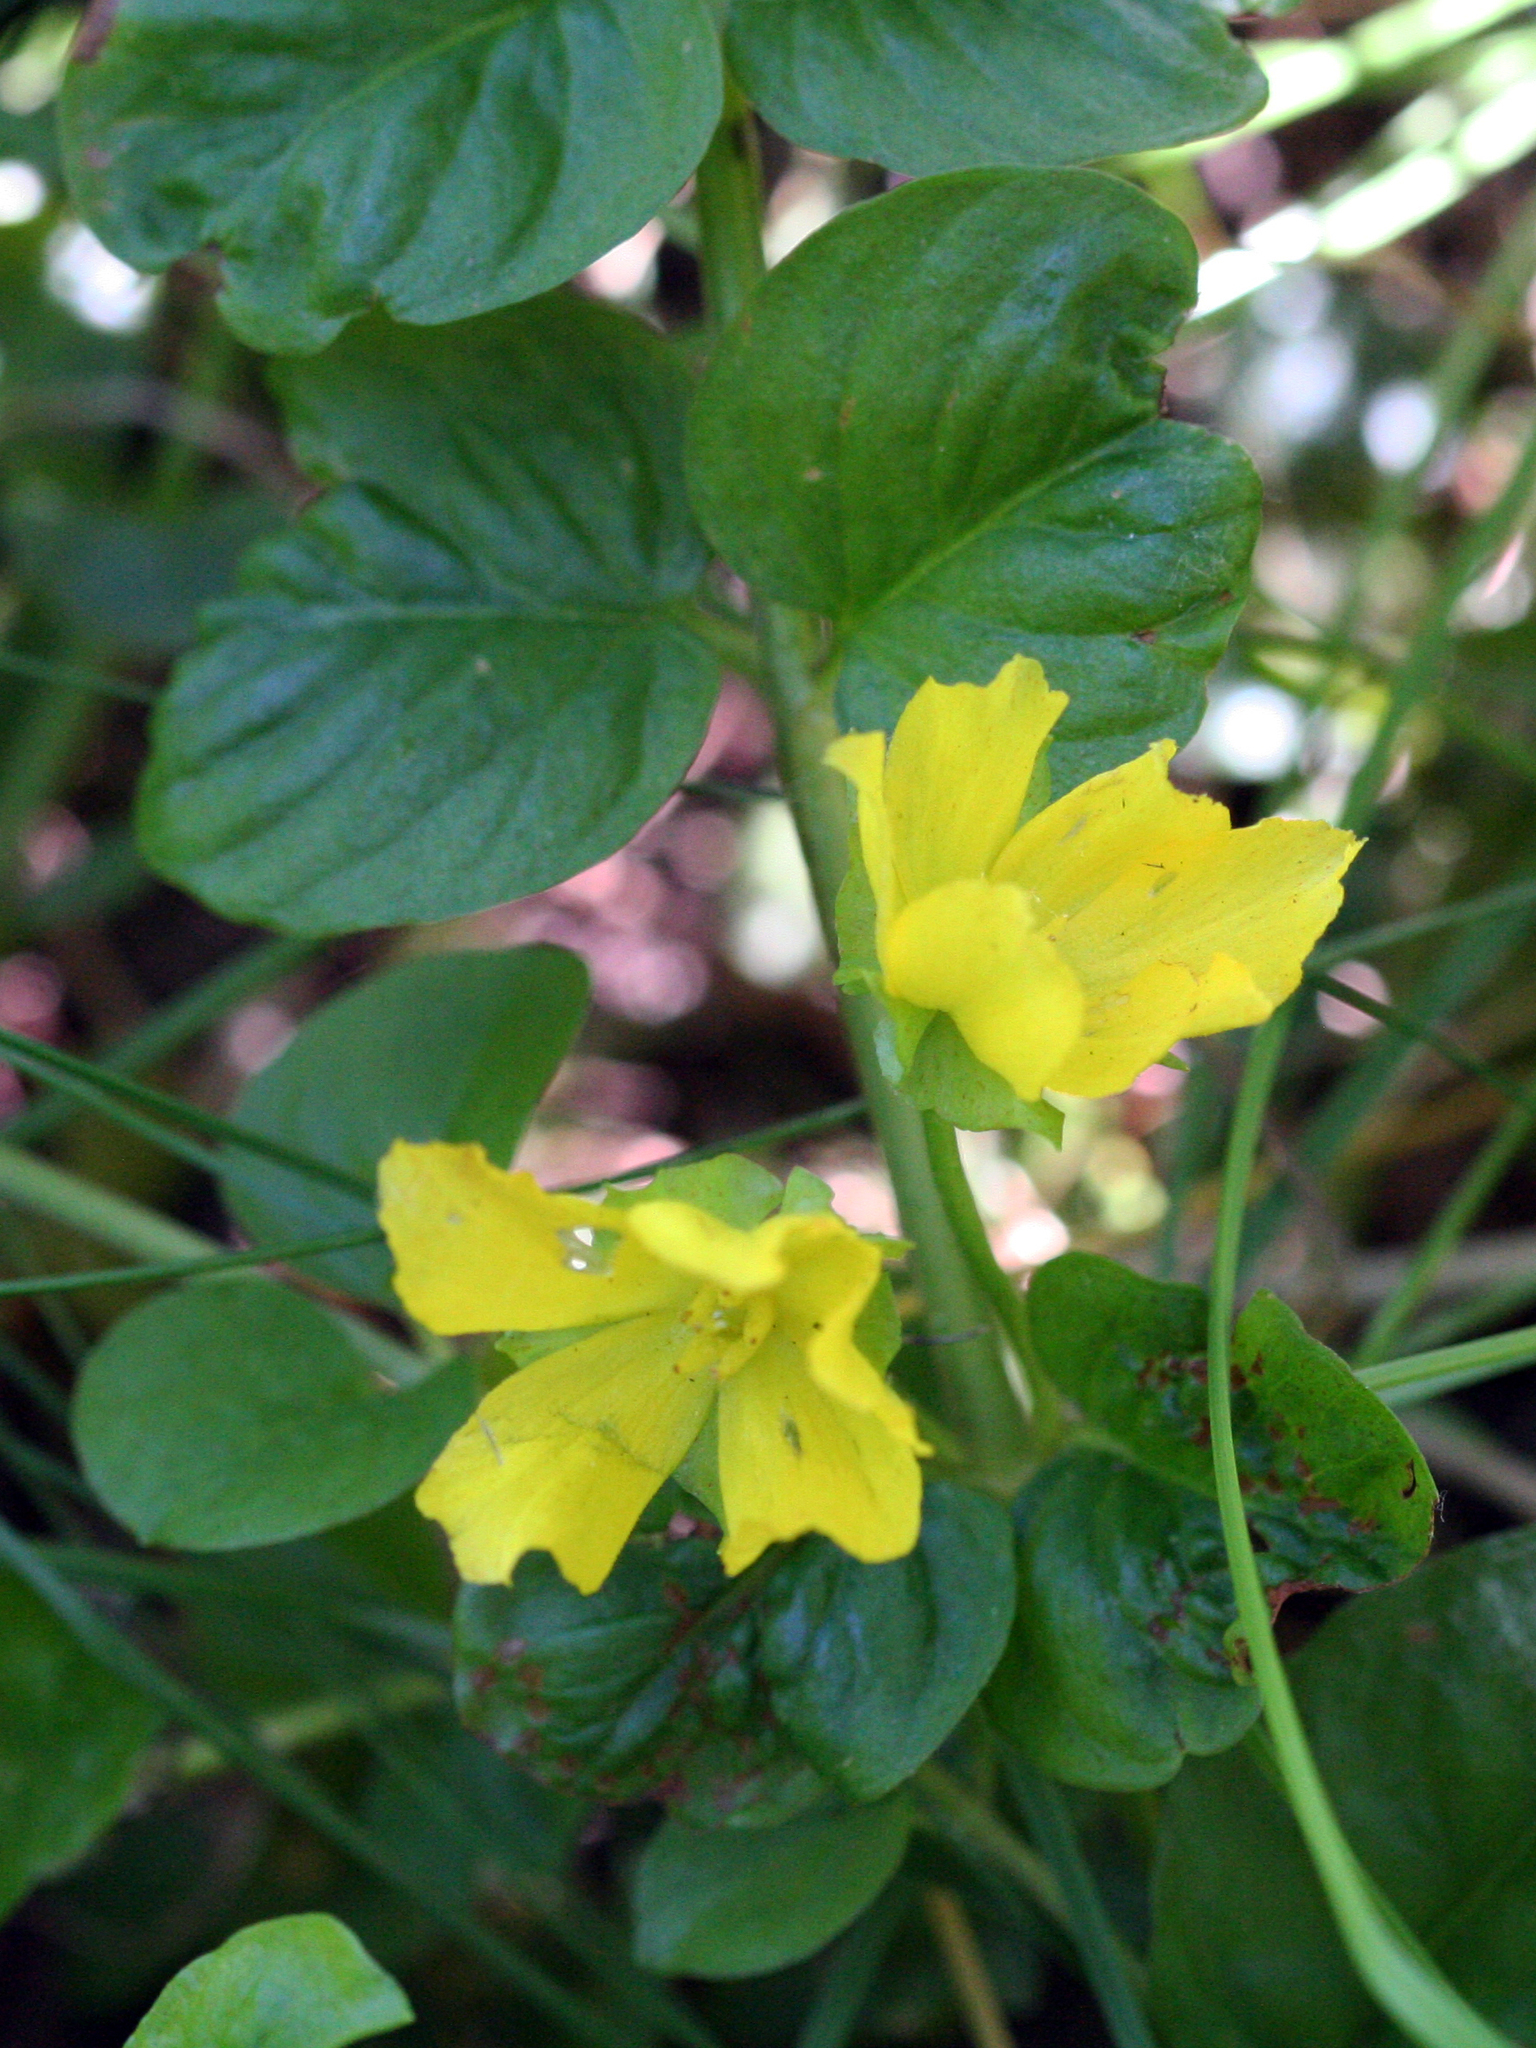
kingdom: Plantae
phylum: Tracheophyta
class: Magnoliopsida
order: Ericales
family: Primulaceae
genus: Lysimachia
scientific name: Lysimachia nummularia
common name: Moneywort
